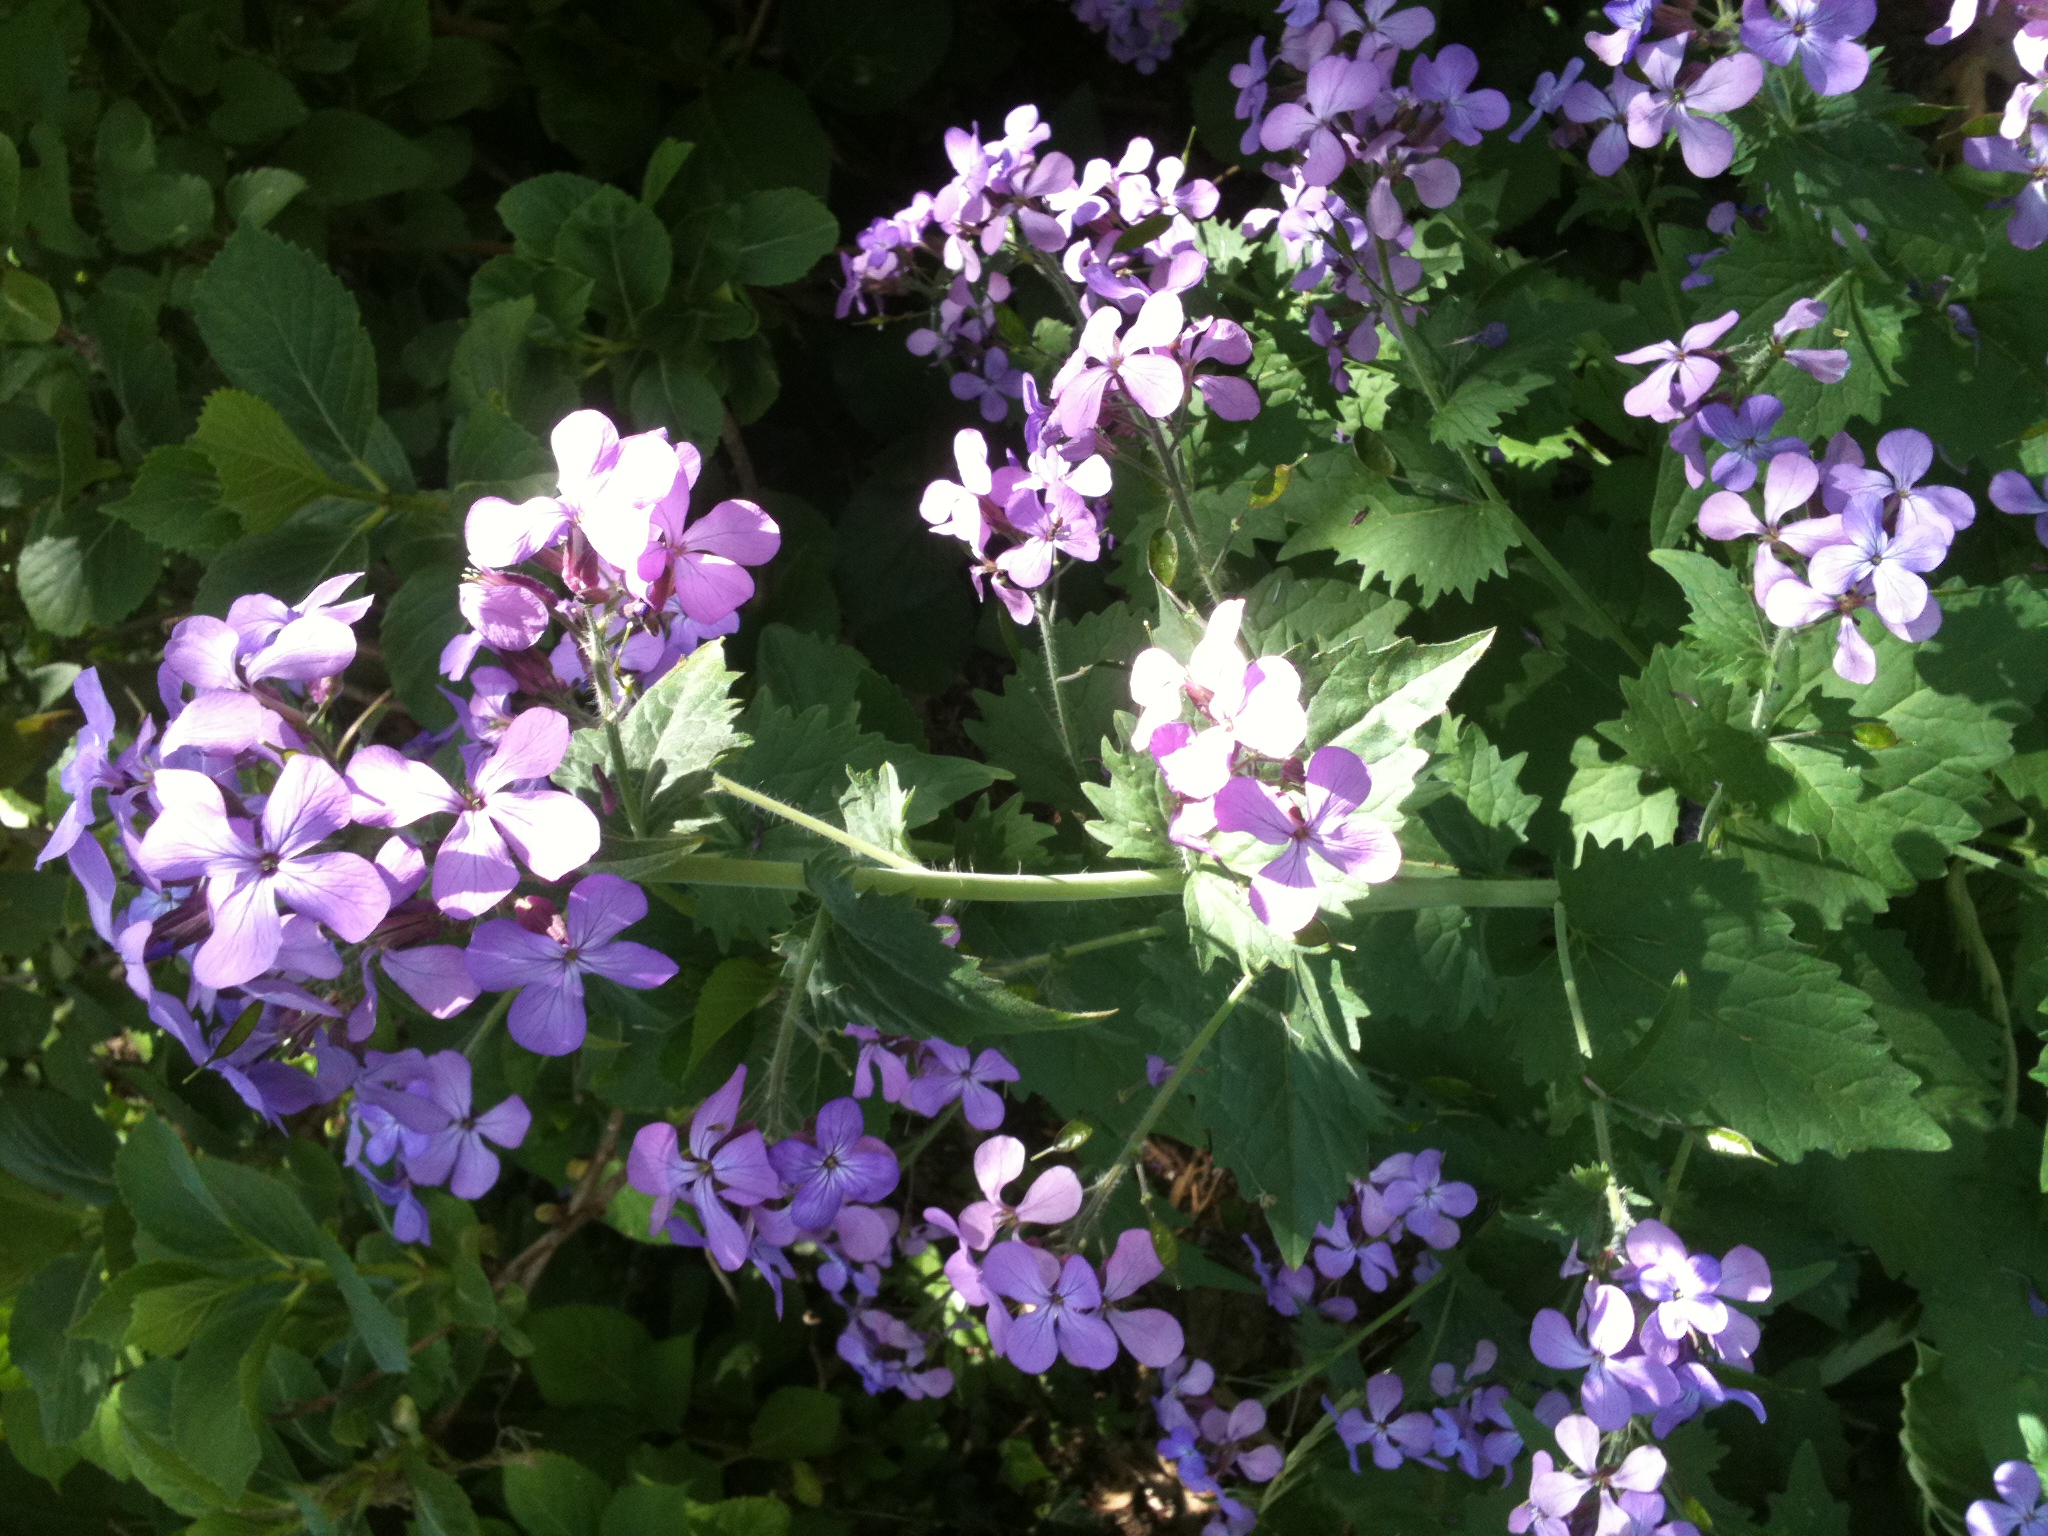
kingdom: Plantae
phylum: Tracheophyta
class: Magnoliopsida
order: Brassicales
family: Brassicaceae
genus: Lunaria
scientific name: Lunaria annua
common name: Honesty
